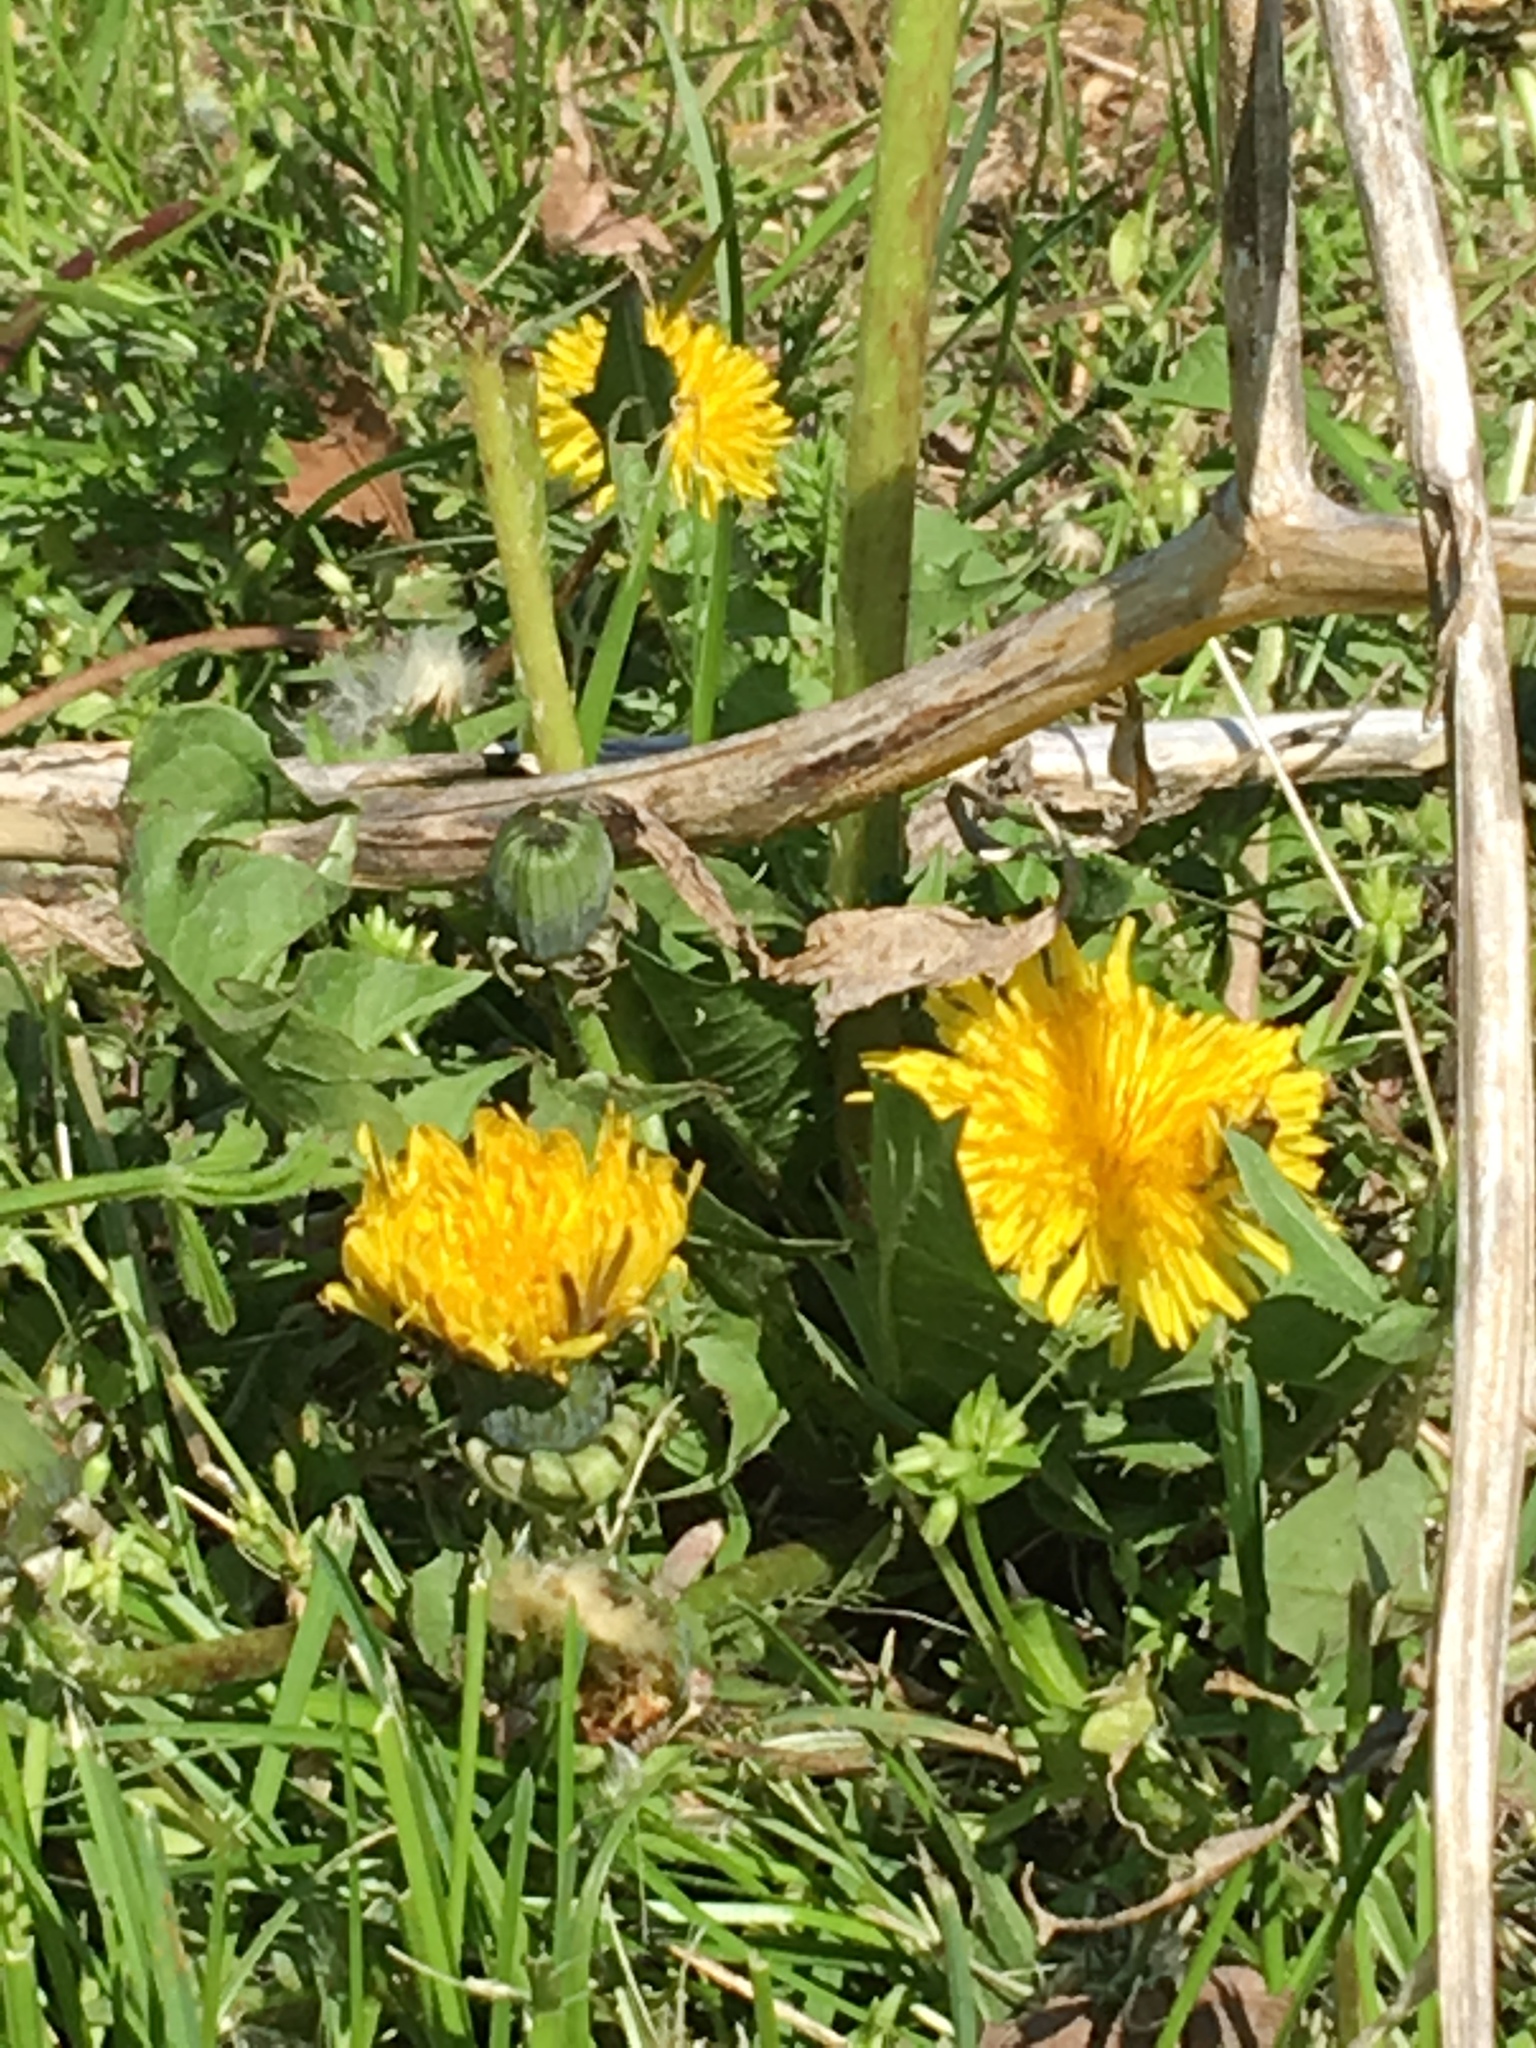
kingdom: Plantae
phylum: Tracheophyta
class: Magnoliopsida
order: Asterales
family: Asteraceae
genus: Taraxacum
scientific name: Taraxacum officinale
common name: Common dandelion
